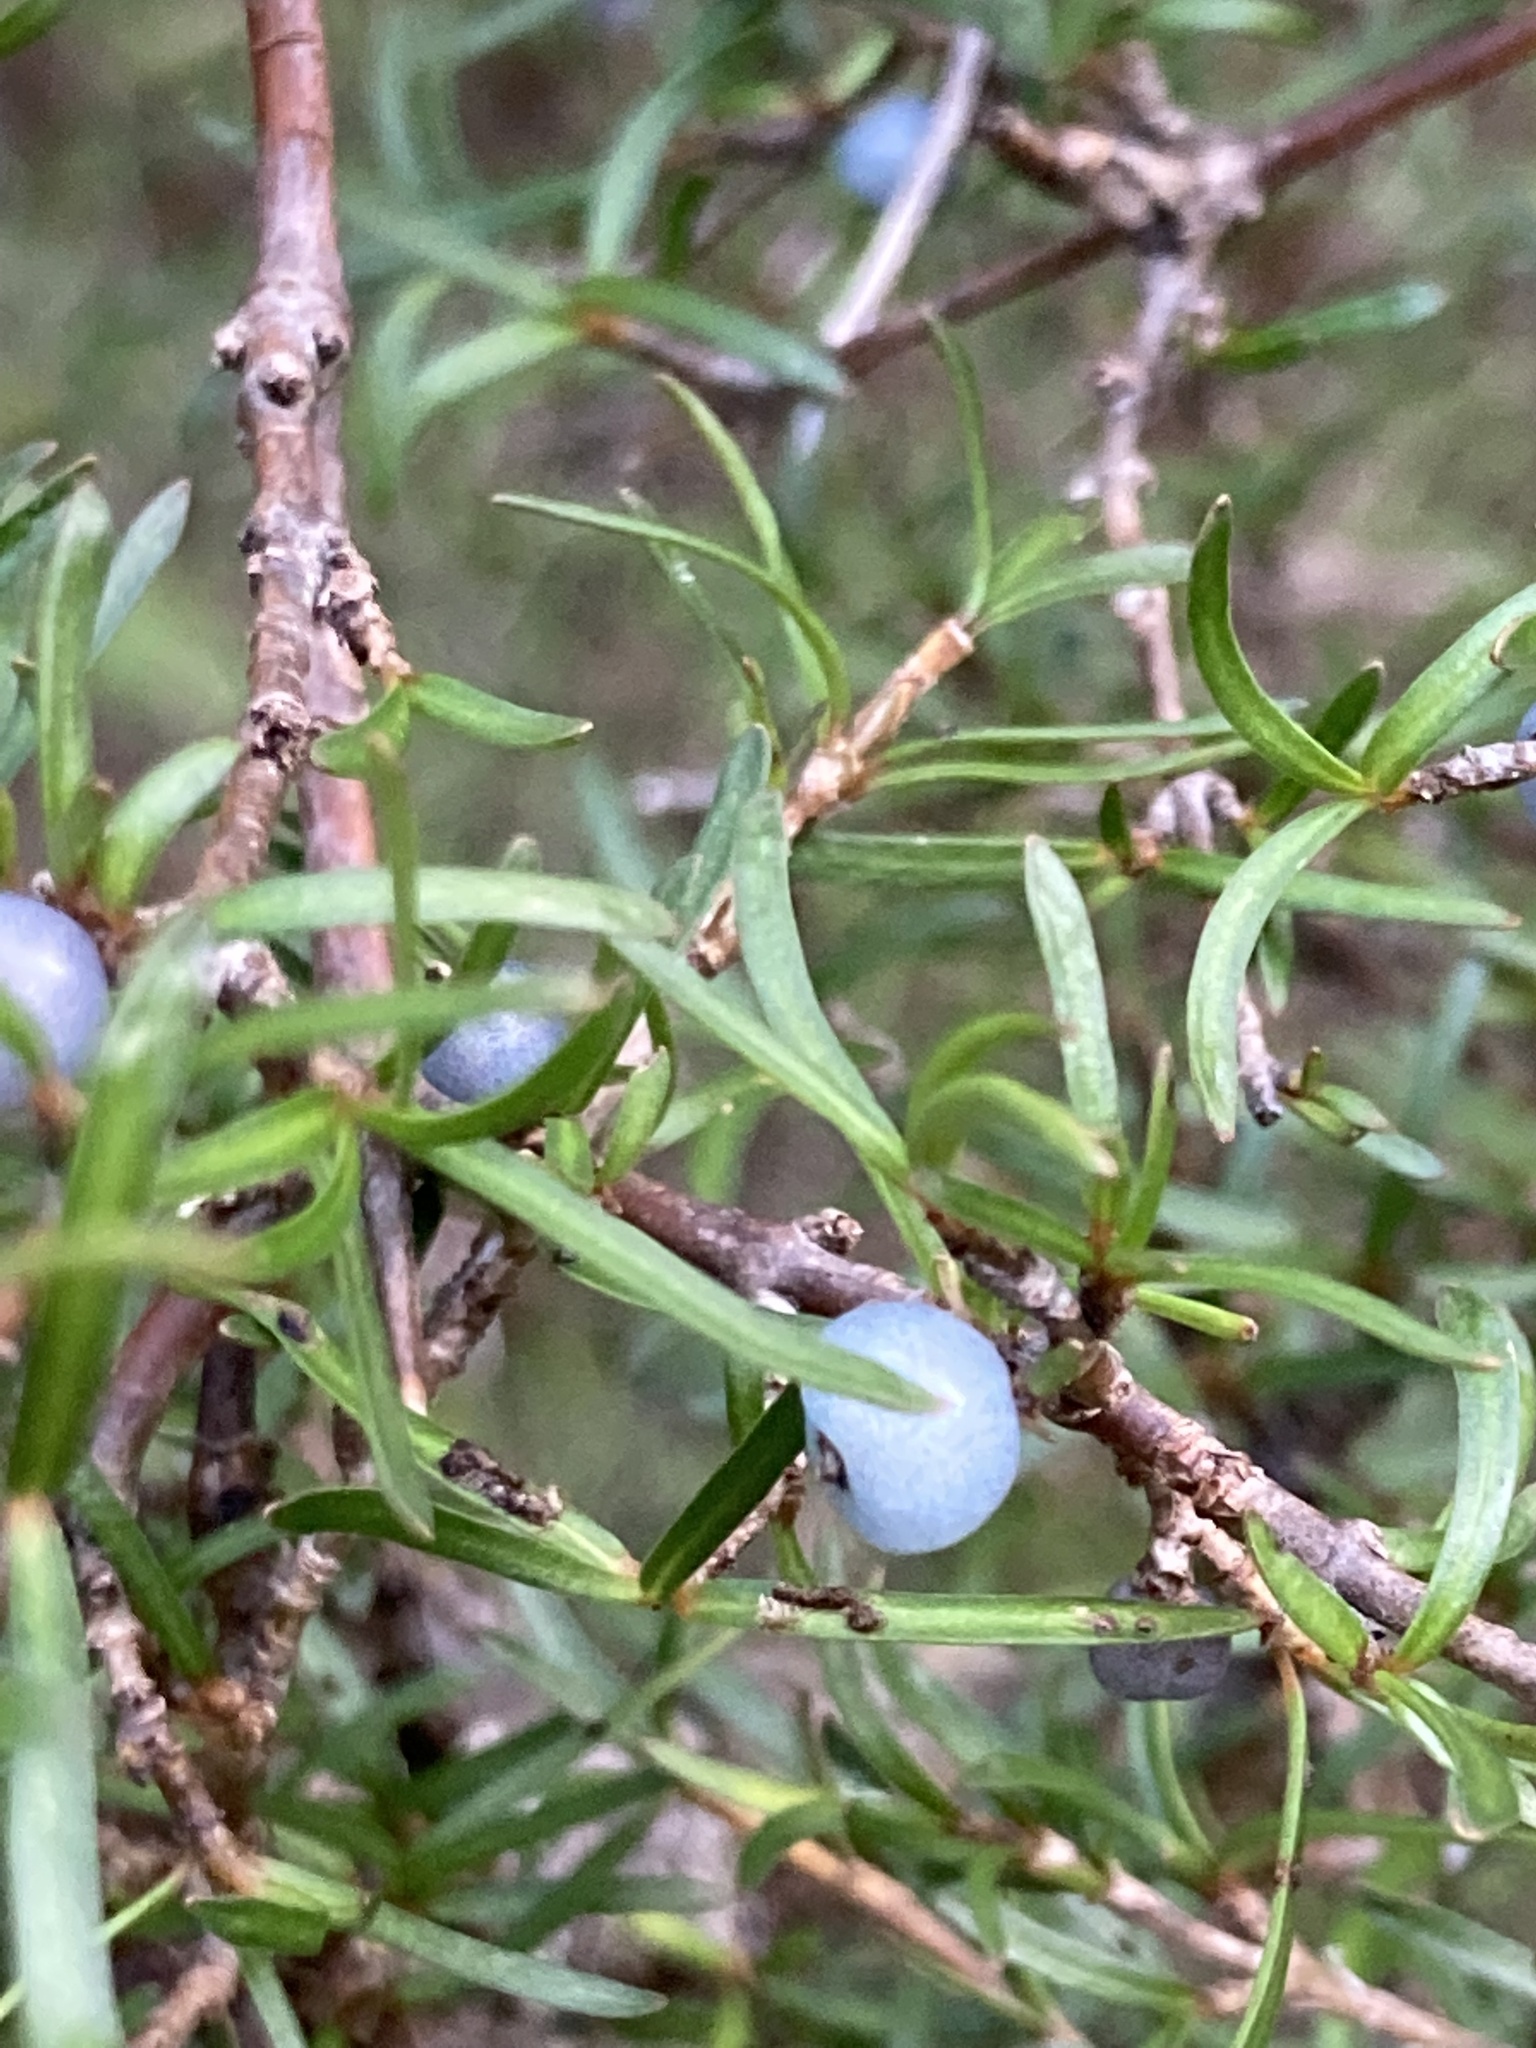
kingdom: Plantae
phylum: Tracheophyta
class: Magnoliopsida
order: Gentianales
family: Rubiaceae
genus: Coprosma
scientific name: Coprosma rugosa
